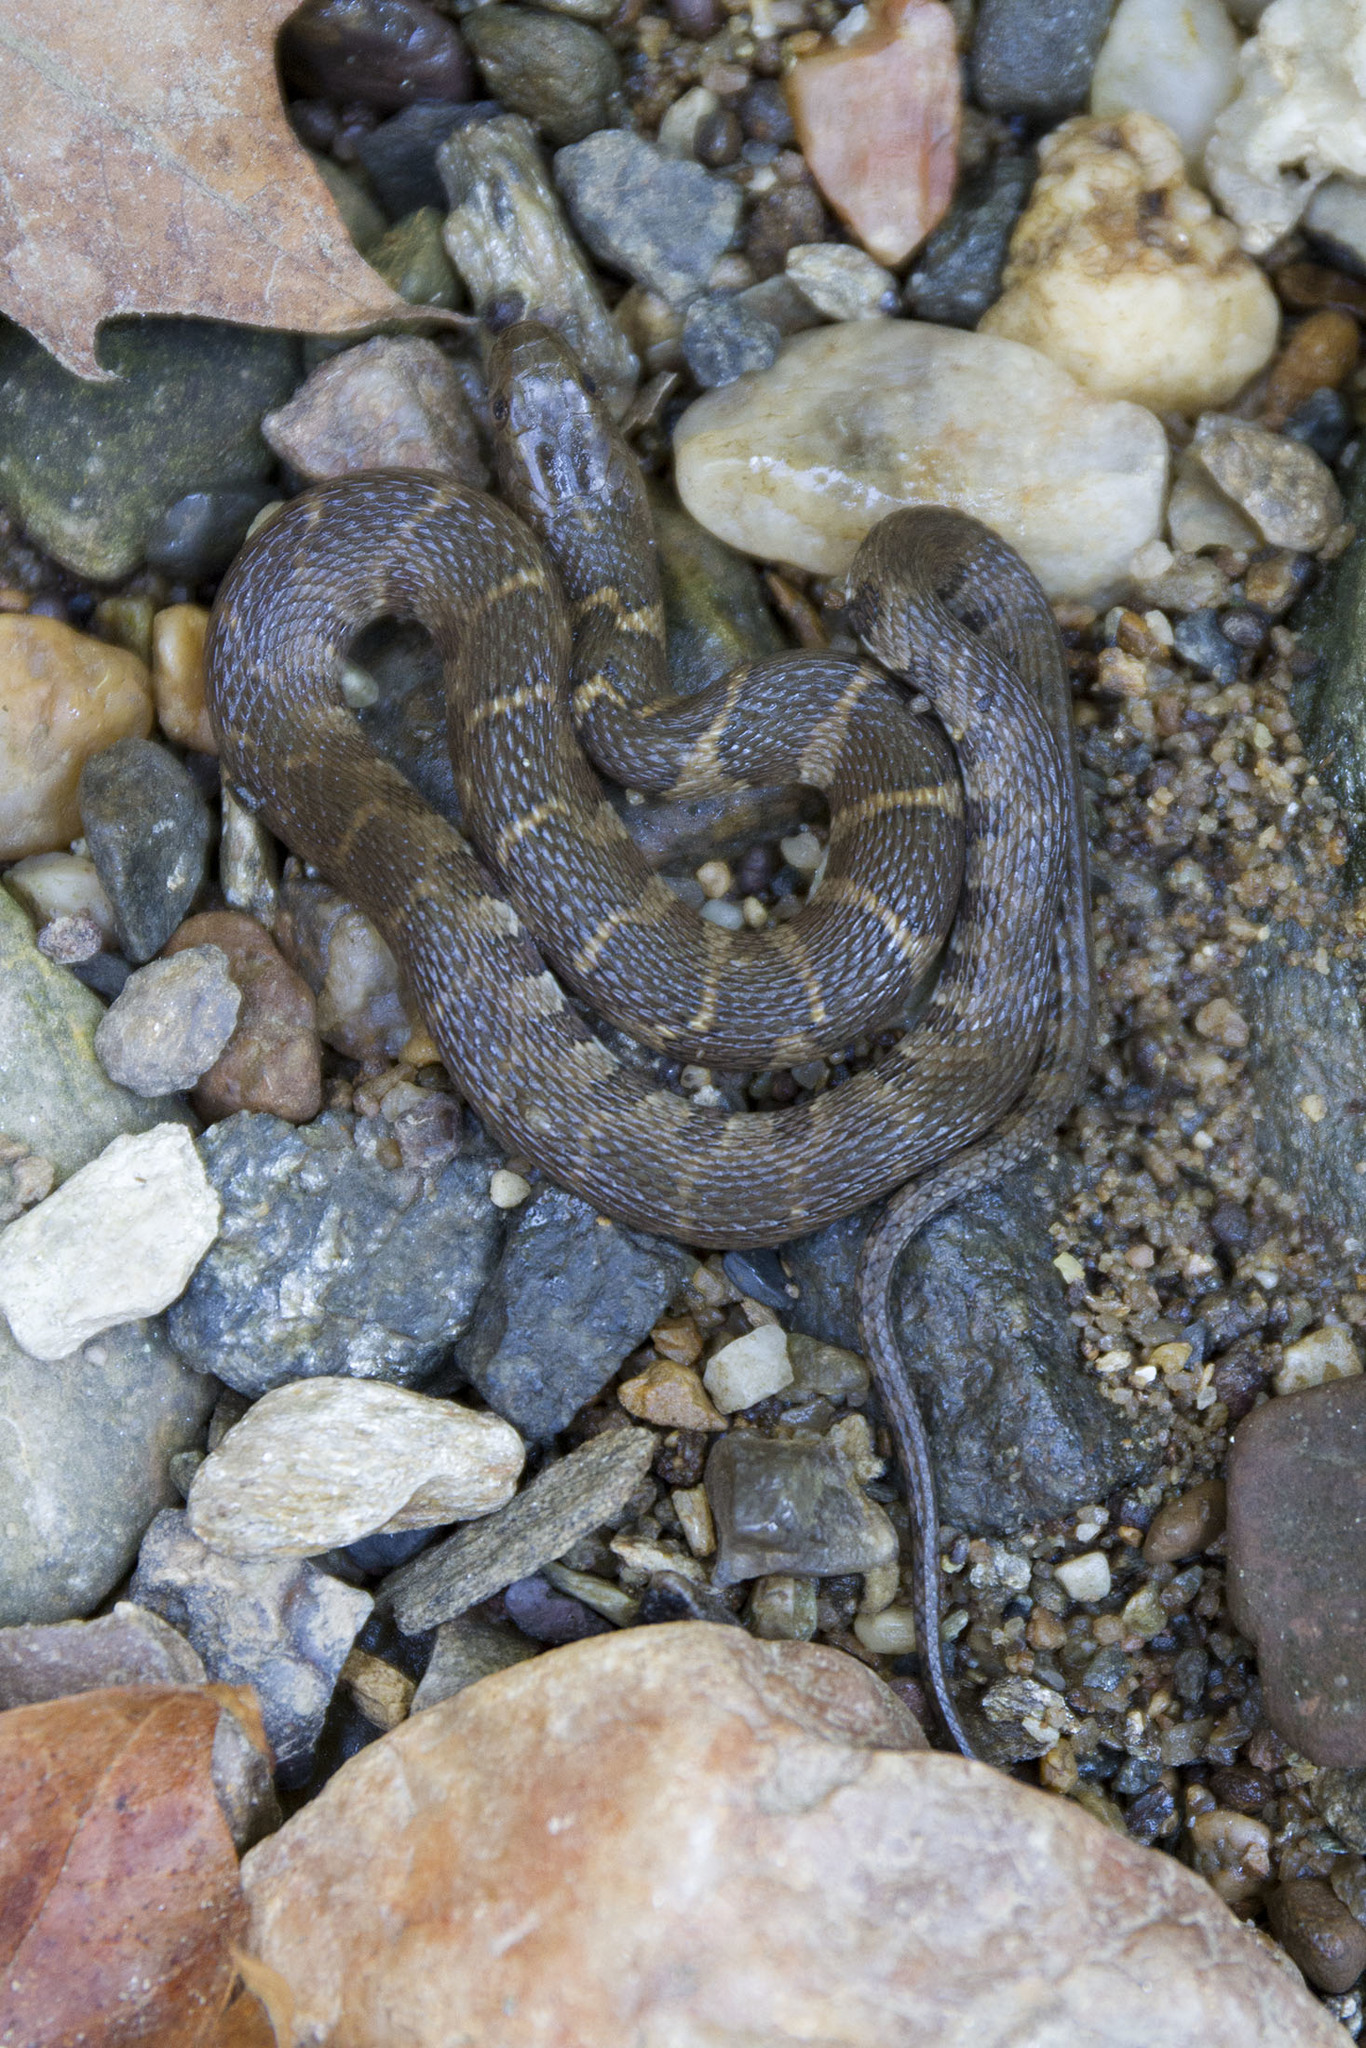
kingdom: Animalia
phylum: Chordata
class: Squamata
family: Colubridae
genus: Nerodia
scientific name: Nerodia sipedon
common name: Northern water snake
